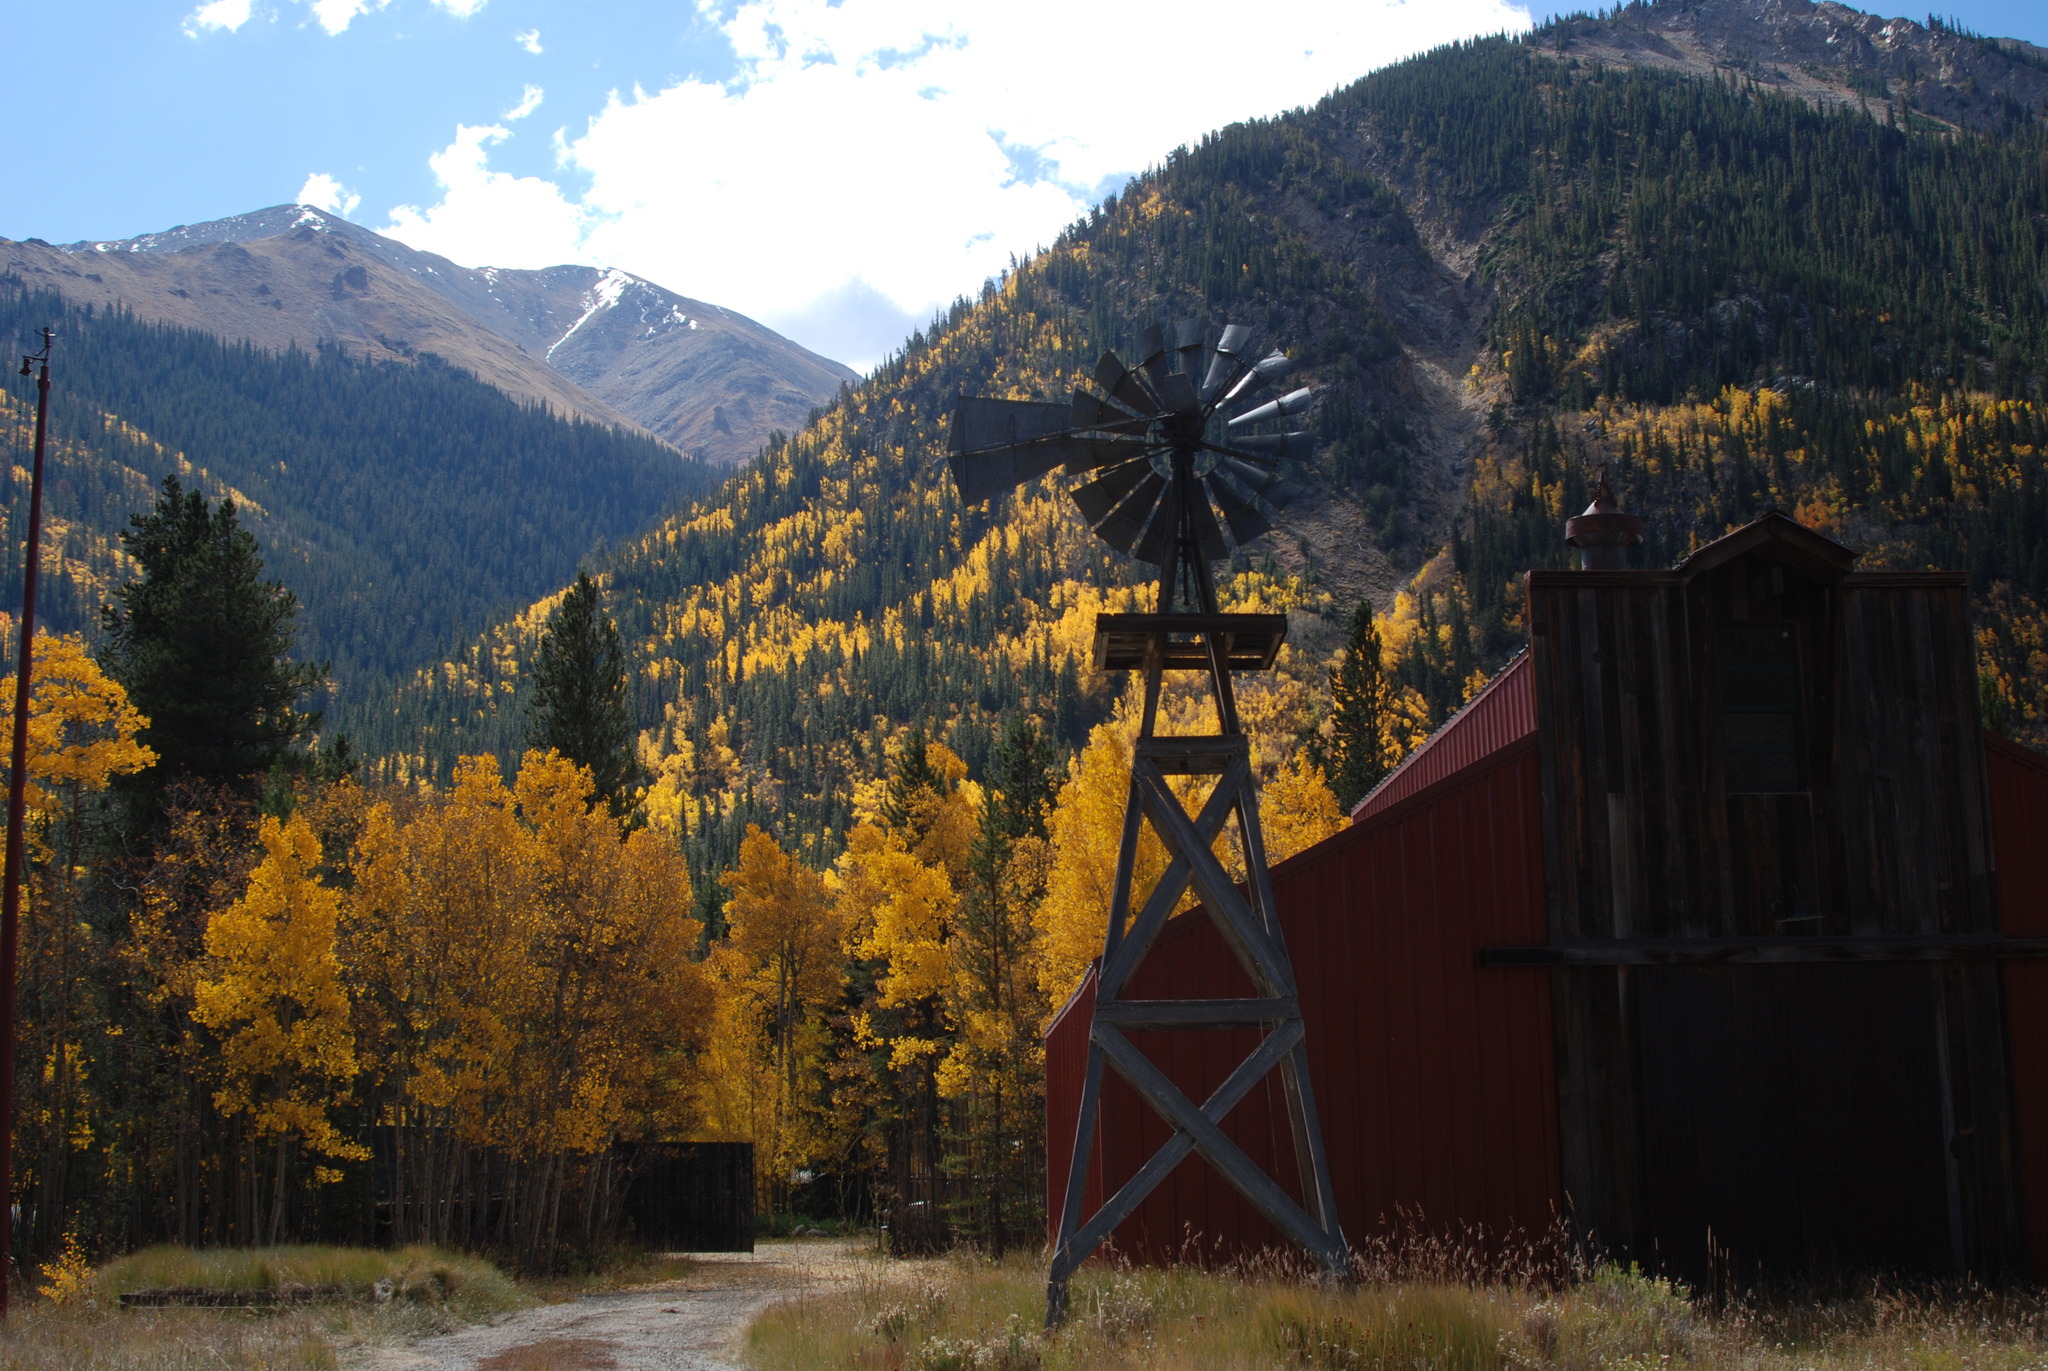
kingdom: Plantae
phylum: Tracheophyta
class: Magnoliopsida
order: Malpighiales
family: Salicaceae
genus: Populus
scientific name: Populus tremuloides
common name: Quaking aspen
